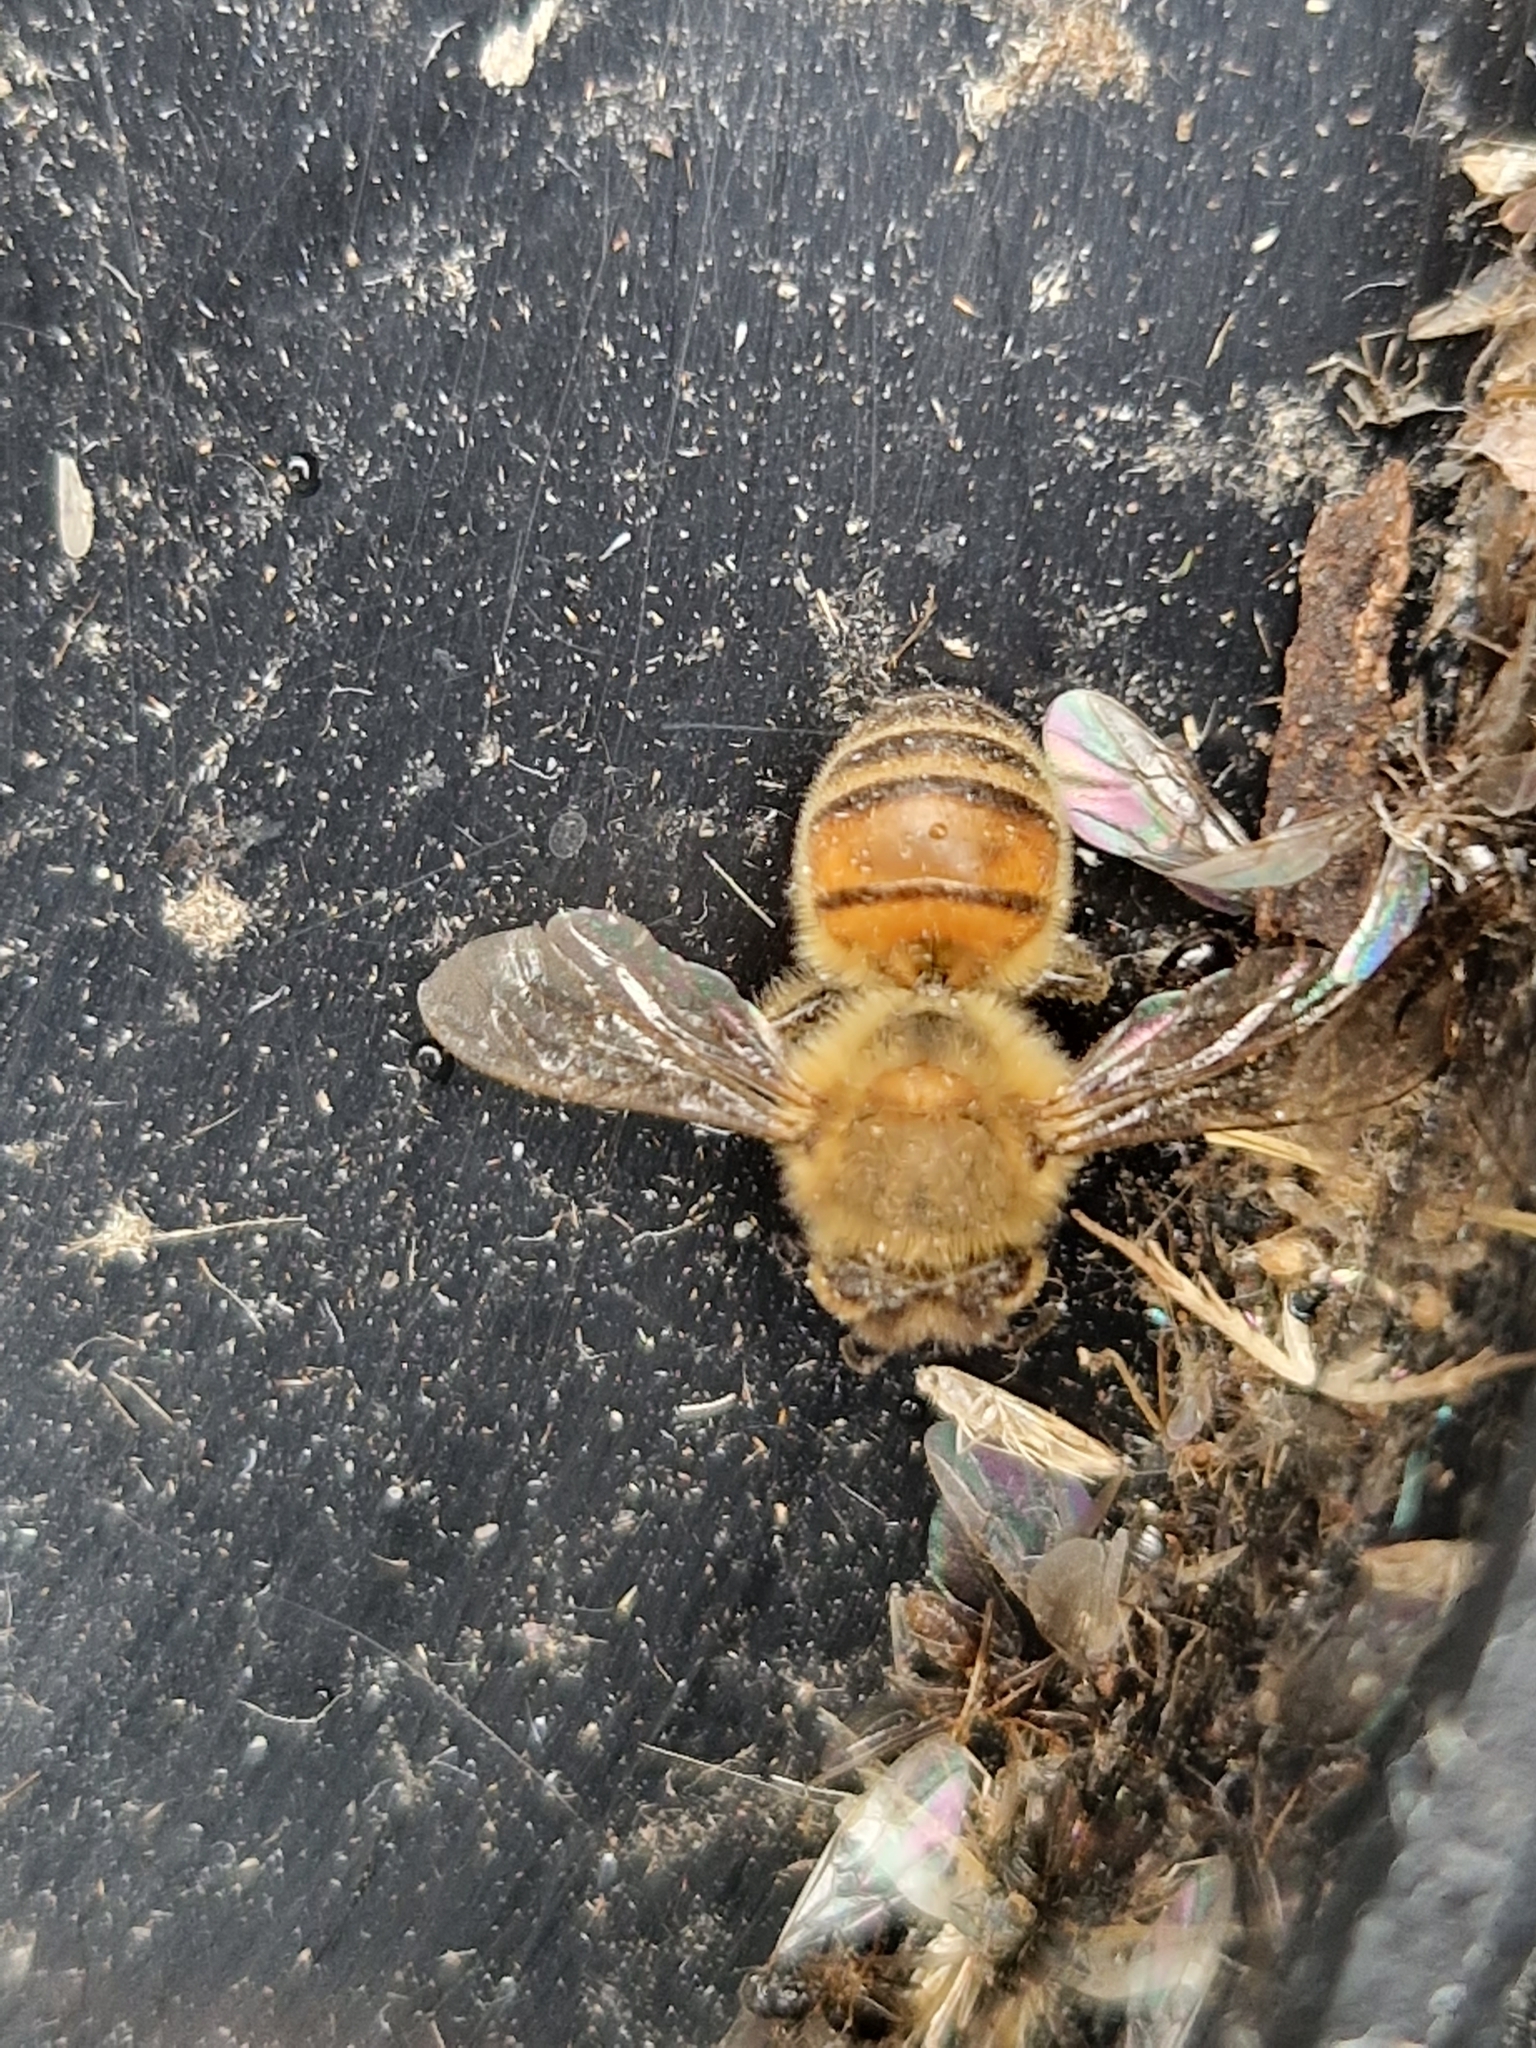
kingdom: Animalia
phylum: Arthropoda
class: Insecta
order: Hymenoptera
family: Apidae
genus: Apis
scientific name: Apis mellifera
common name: Honey bee
